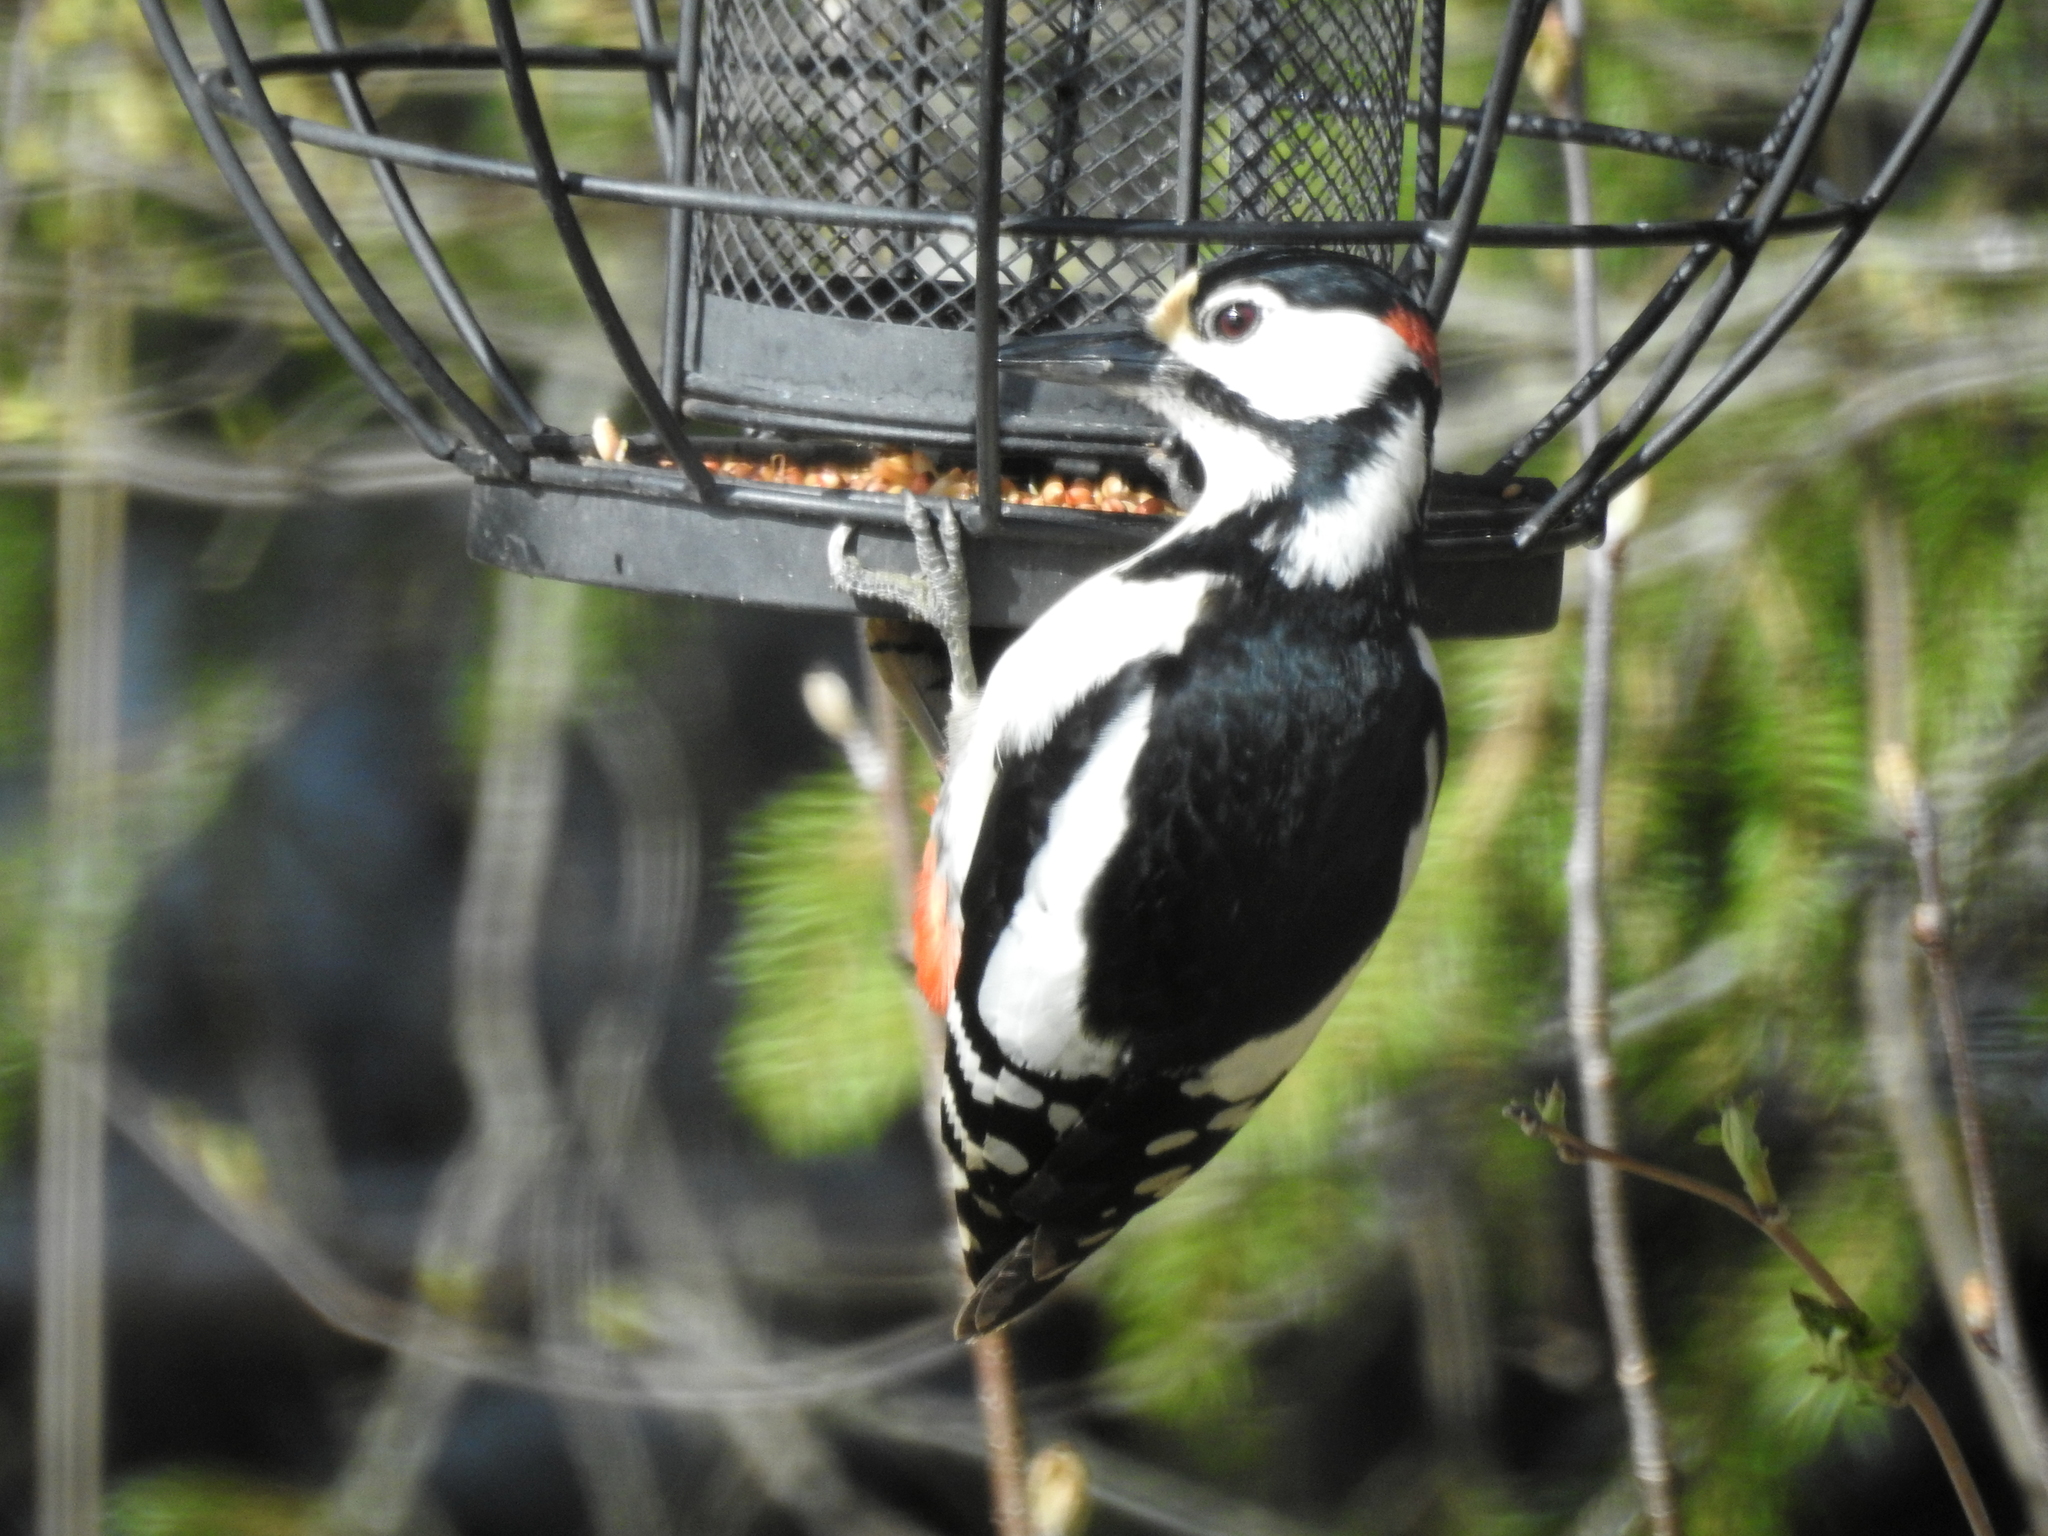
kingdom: Animalia
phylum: Chordata
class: Aves
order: Piciformes
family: Picidae
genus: Dendrocopos
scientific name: Dendrocopos major
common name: Great spotted woodpecker
